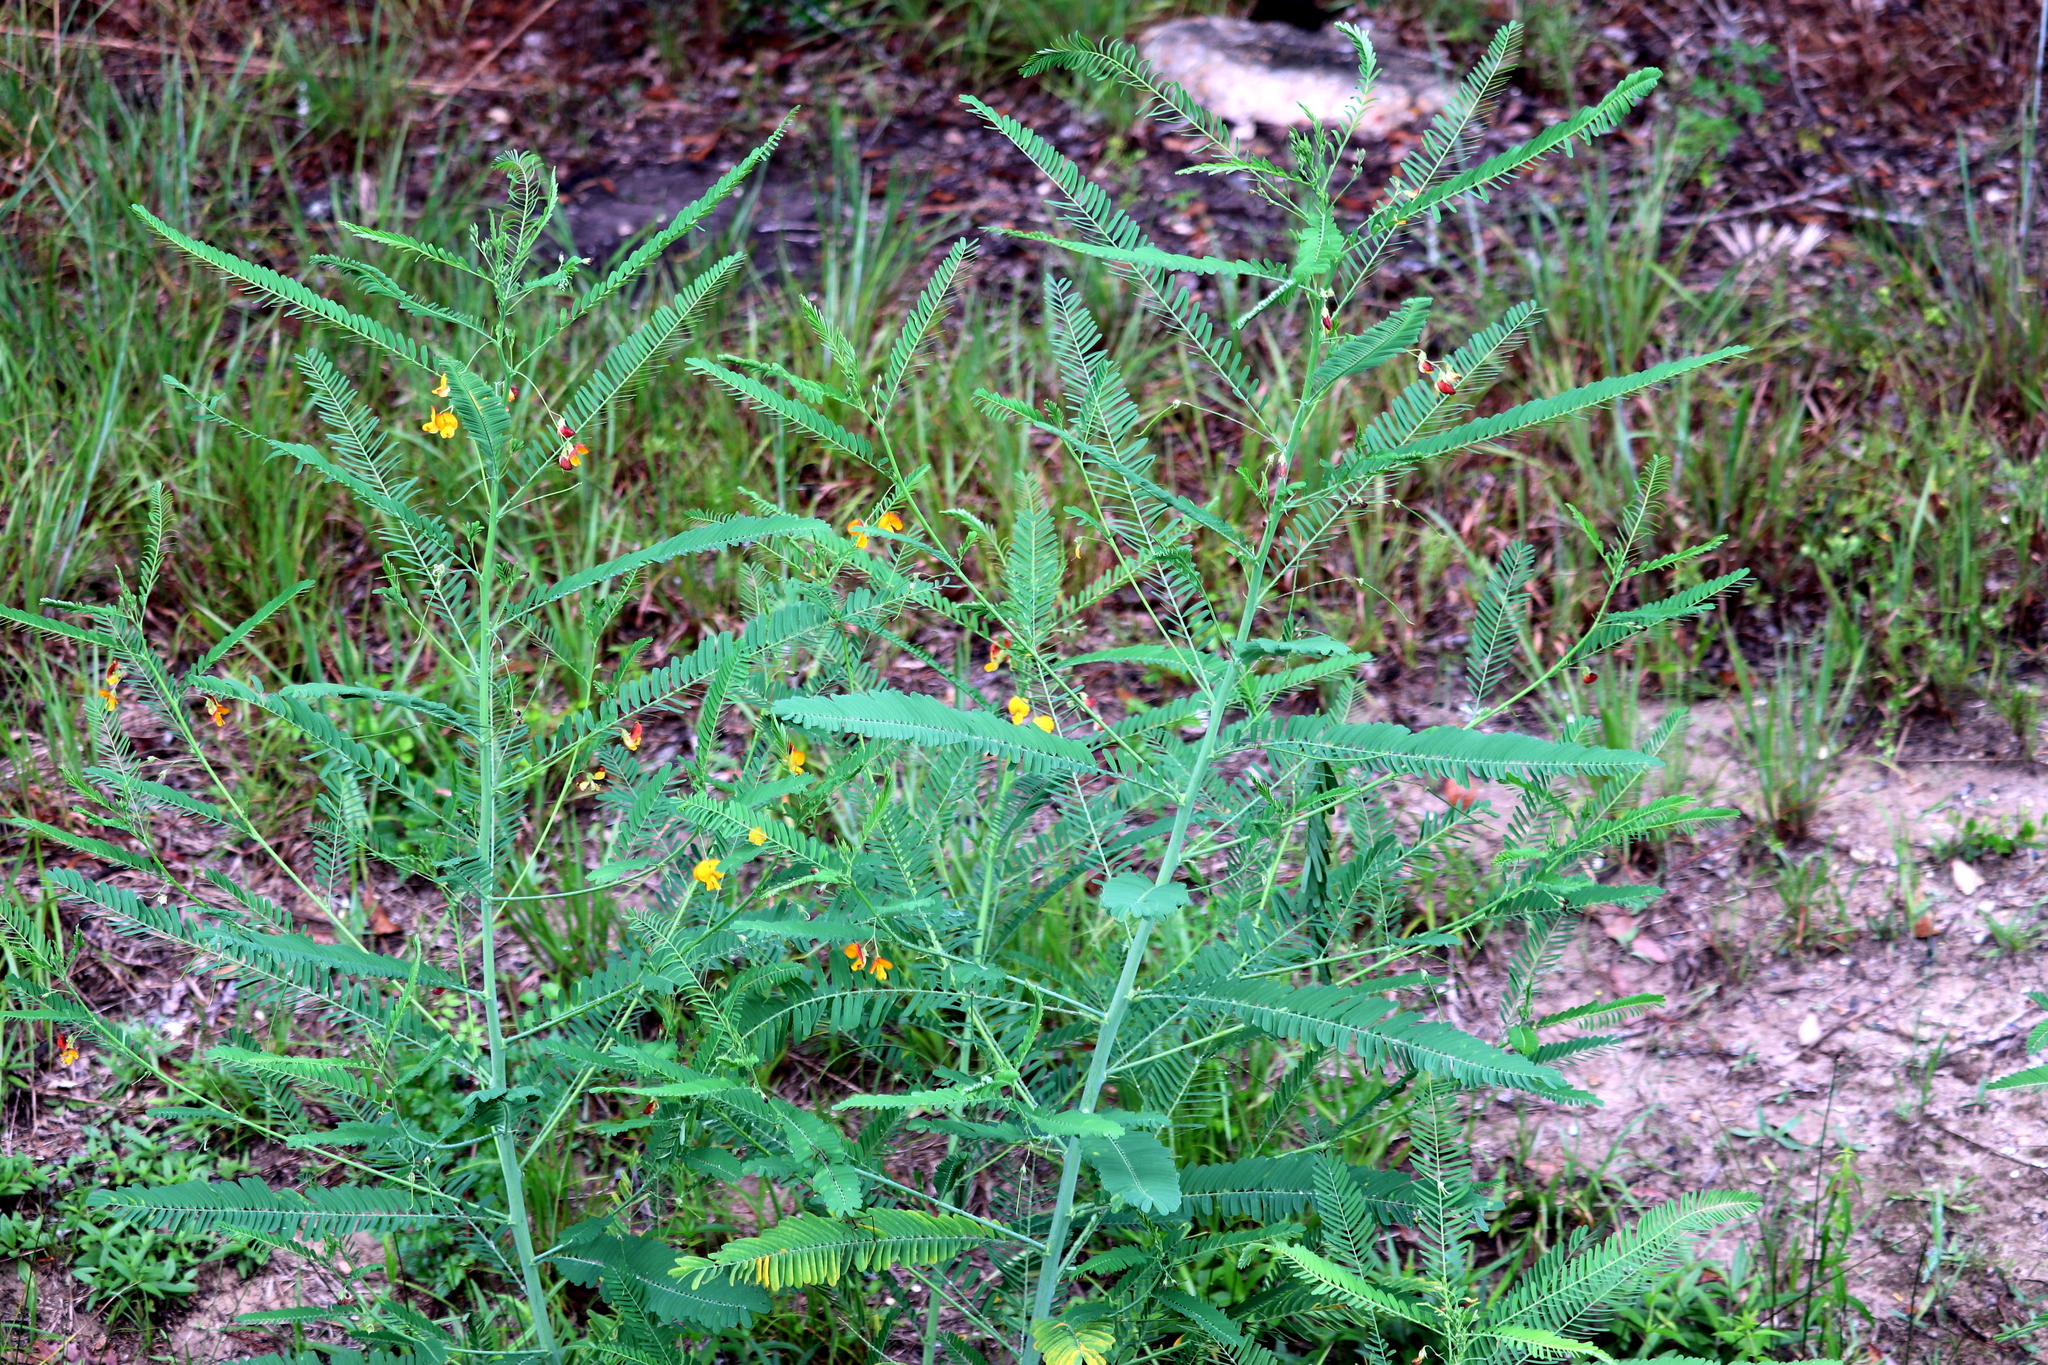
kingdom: Plantae
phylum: Tracheophyta
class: Magnoliopsida
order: Fabales
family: Fabaceae
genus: Sesbania
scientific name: Sesbania herbacea
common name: Bigpod sesbania
